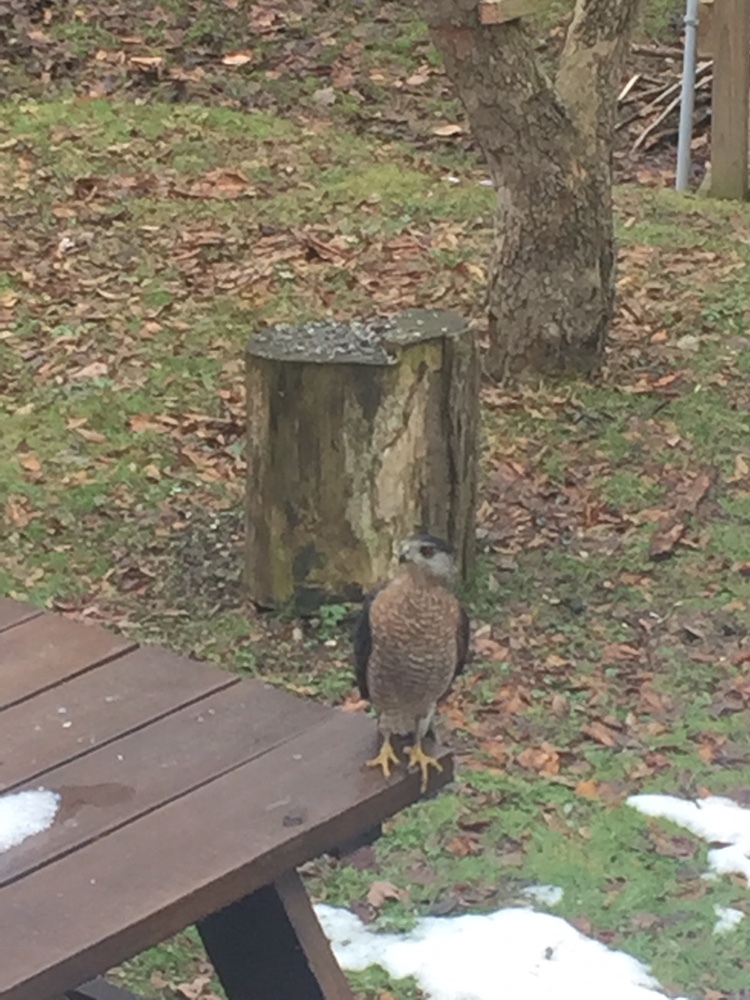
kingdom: Animalia
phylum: Chordata
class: Aves
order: Accipitriformes
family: Accipitridae
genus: Accipiter
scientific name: Accipiter cooperii
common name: Cooper's hawk
